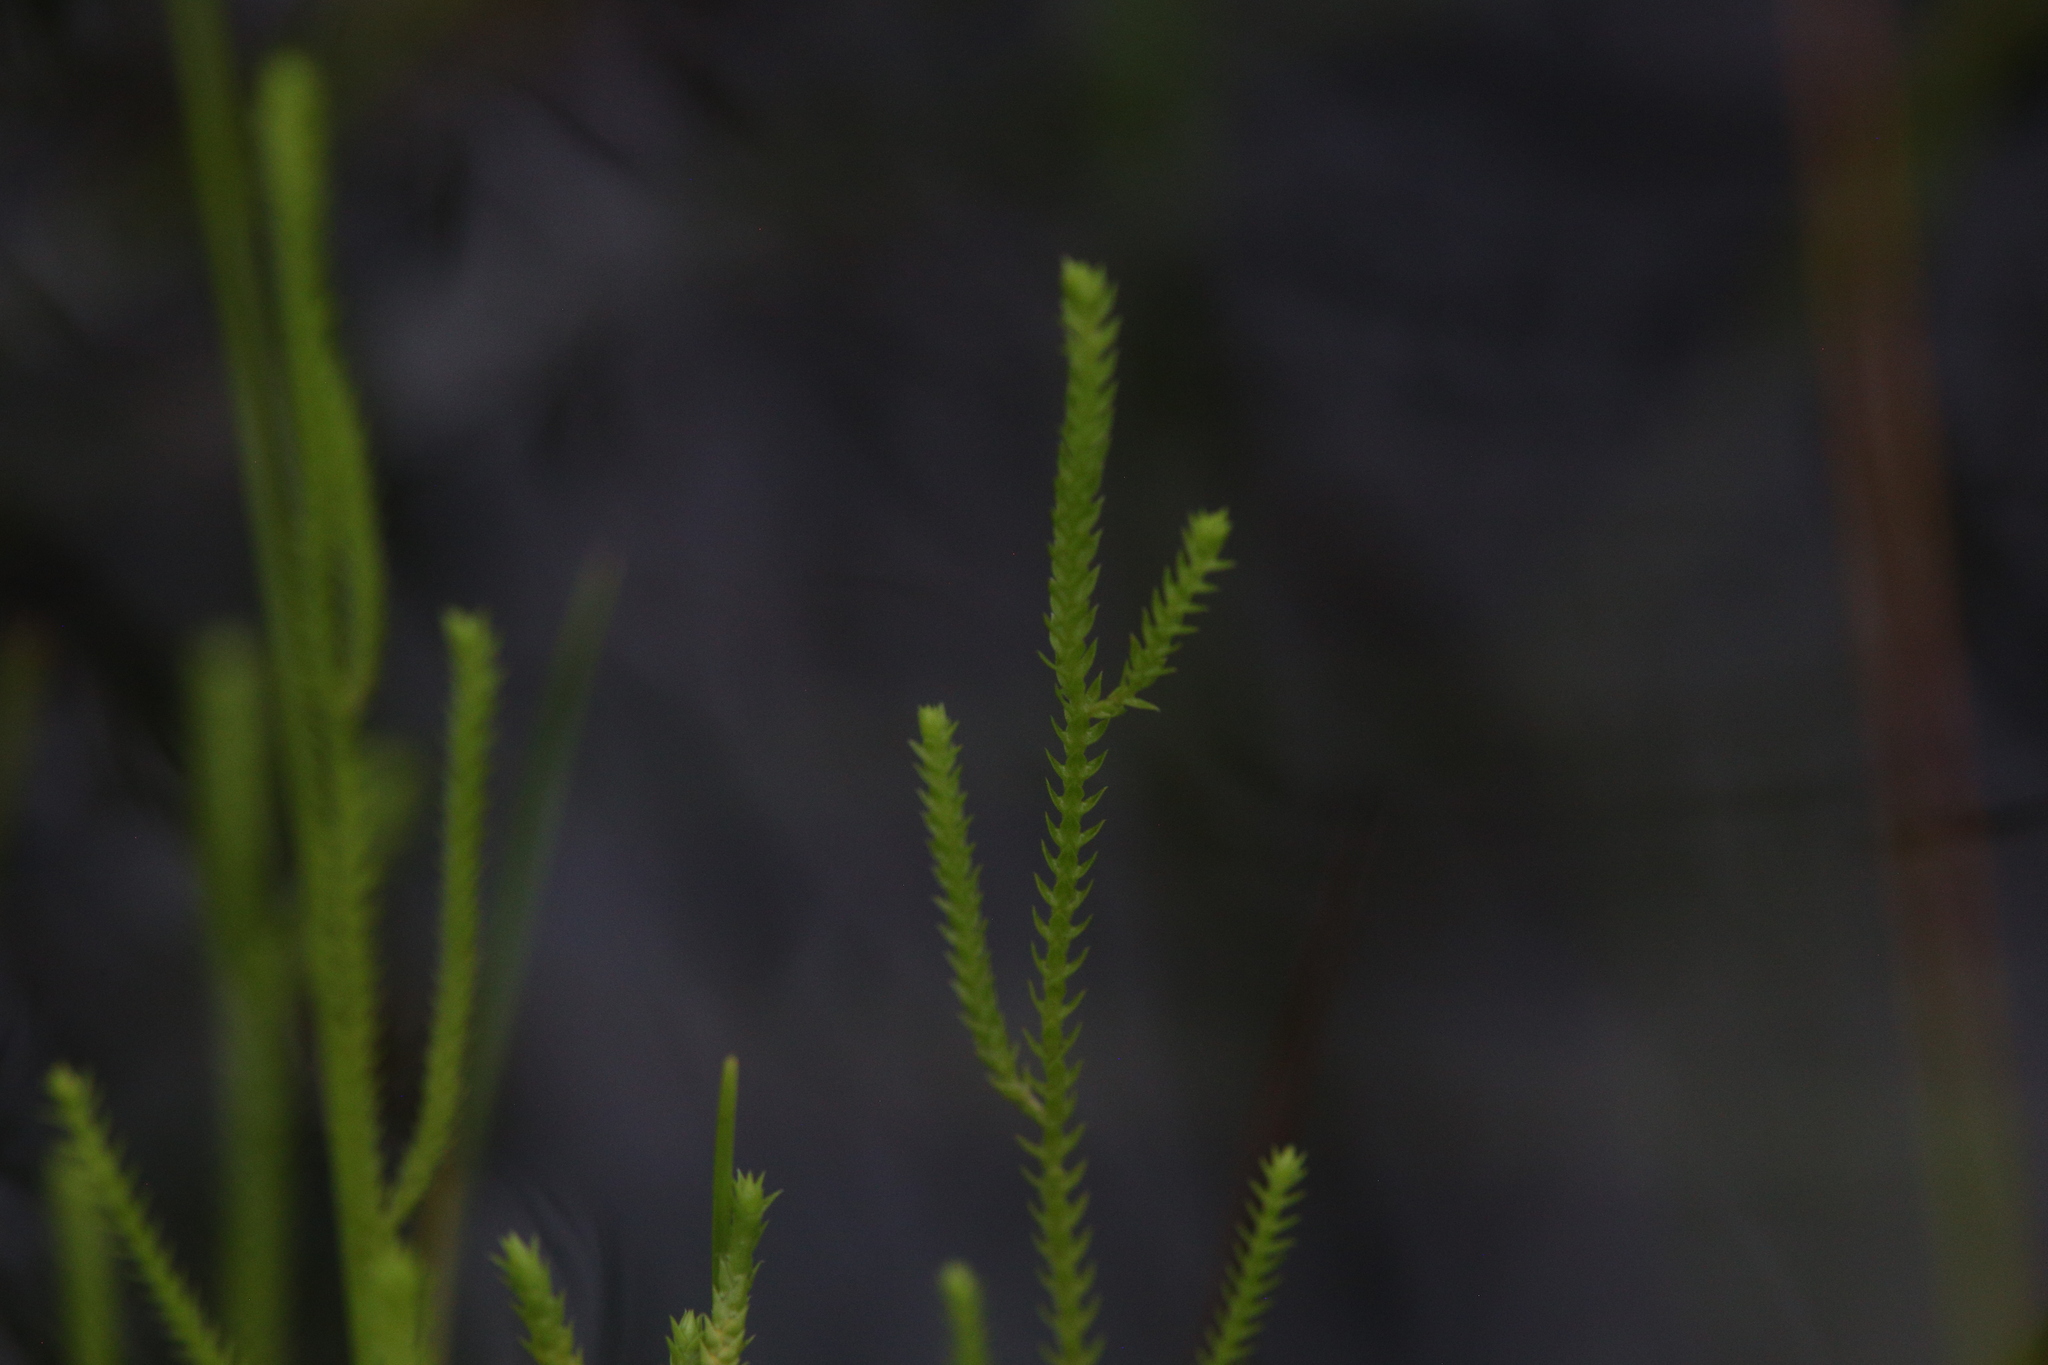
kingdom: Plantae
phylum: Tracheophyta
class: Lycopodiopsida
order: Selaginellales
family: Selaginellaceae
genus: Selaginella
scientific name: Selaginella pygmaea
